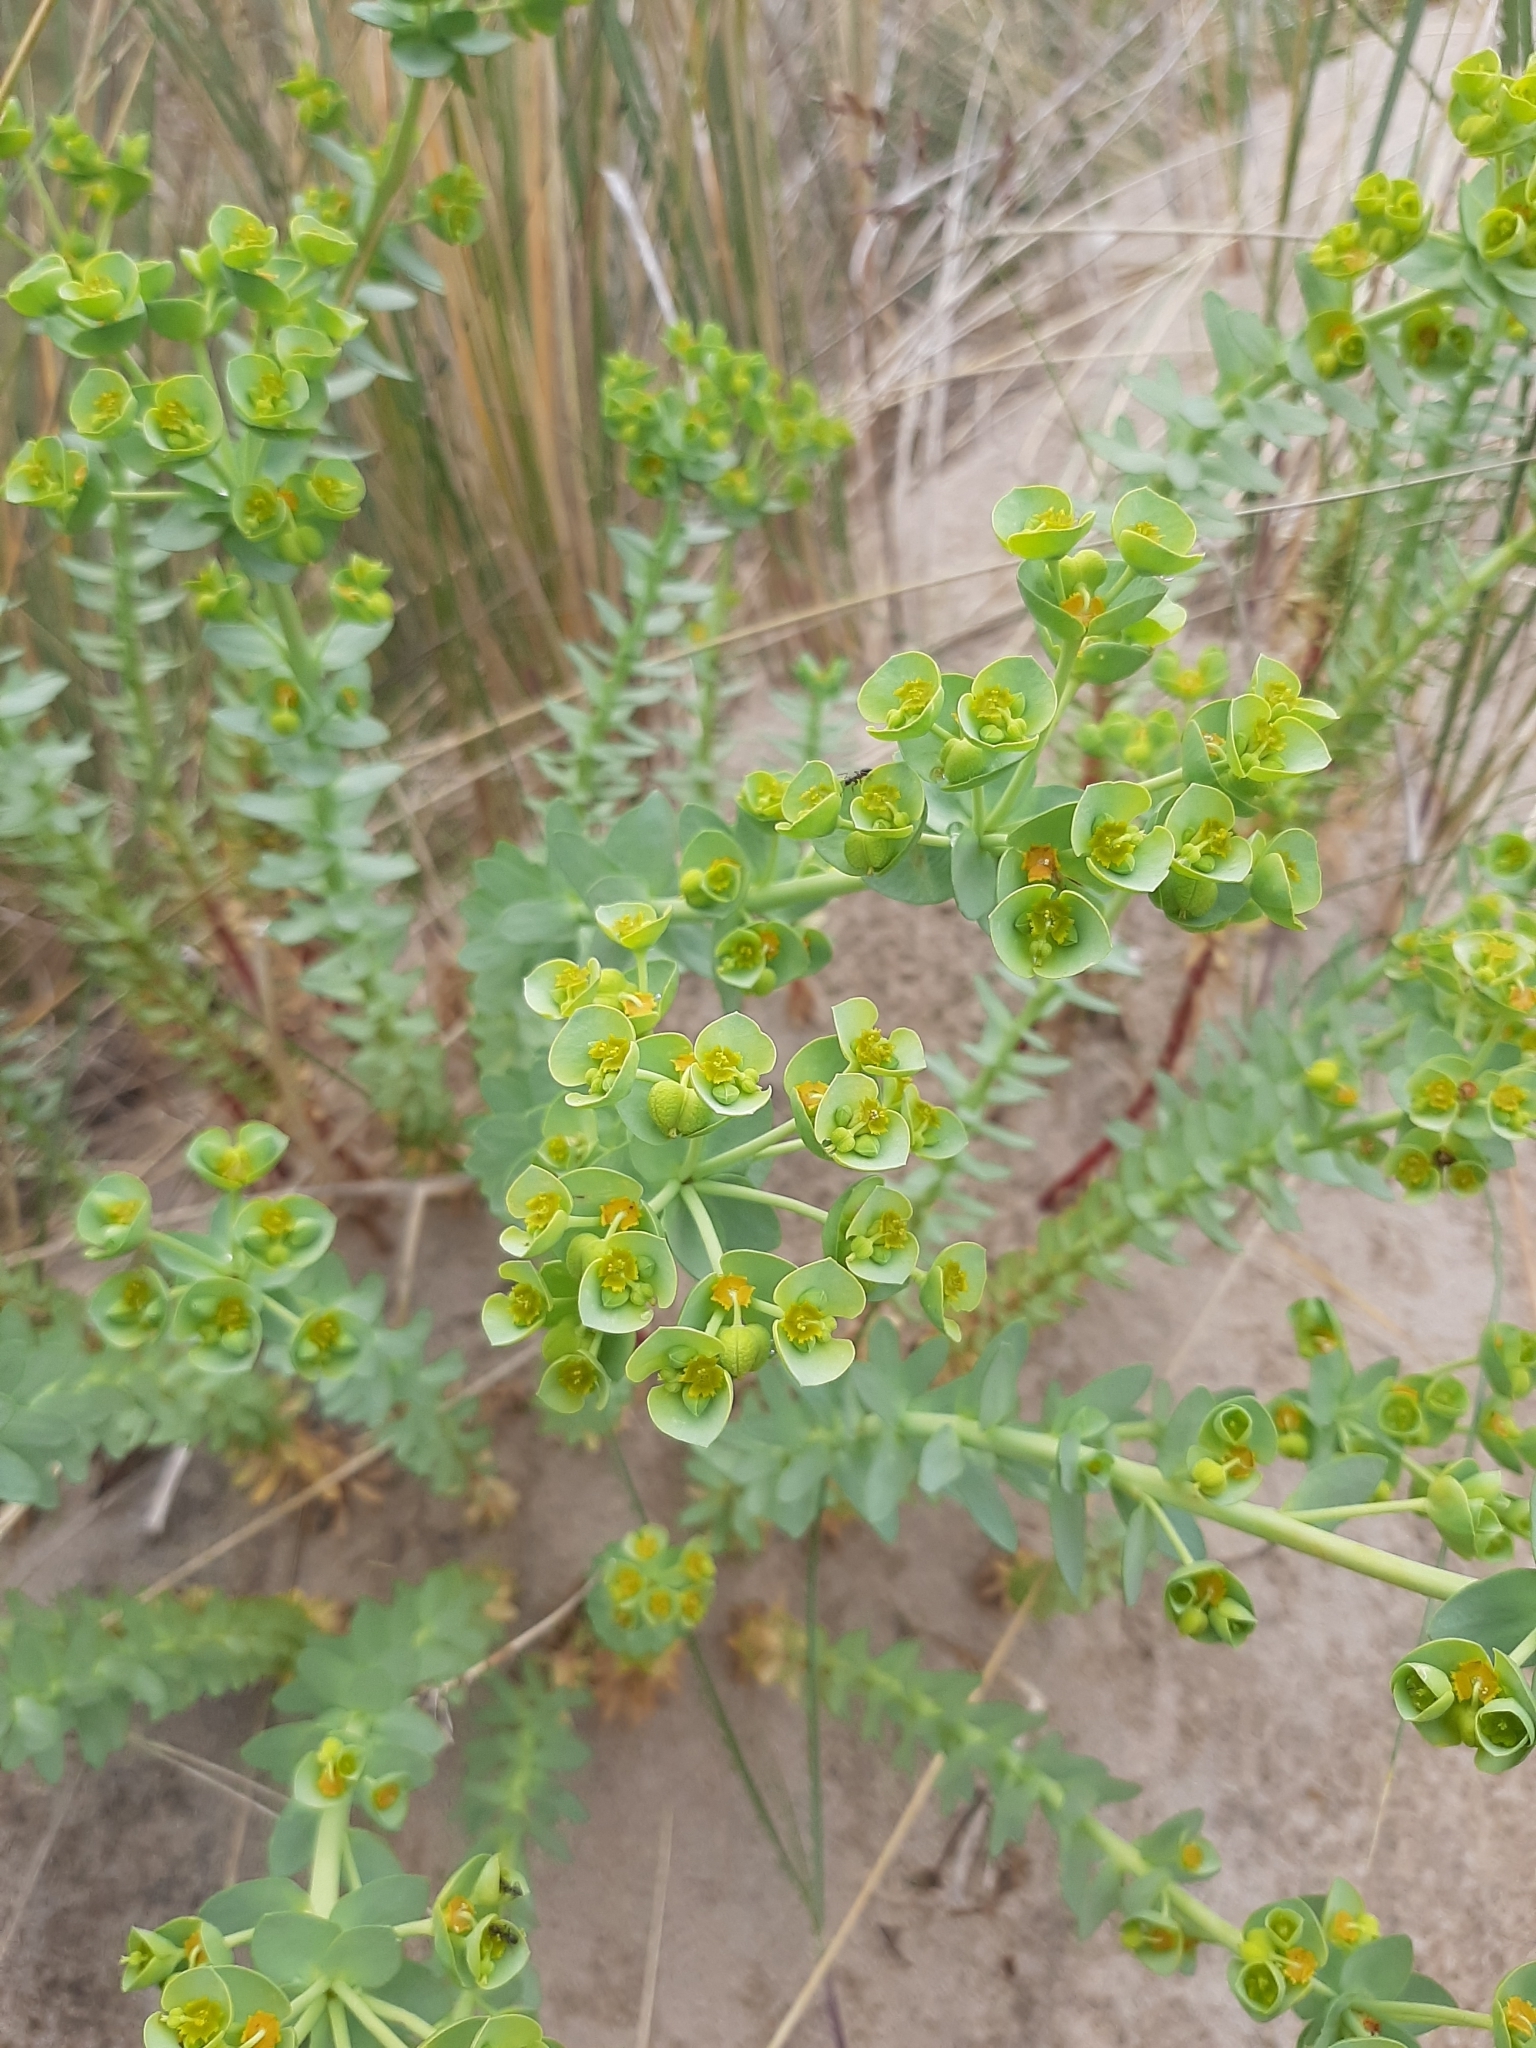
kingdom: Plantae
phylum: Tracheophyta
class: Magnoliopsida
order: Malpighiales
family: Euphorbiaceae
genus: Euphorbia
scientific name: Euphorbia paralias
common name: Sea spurge
